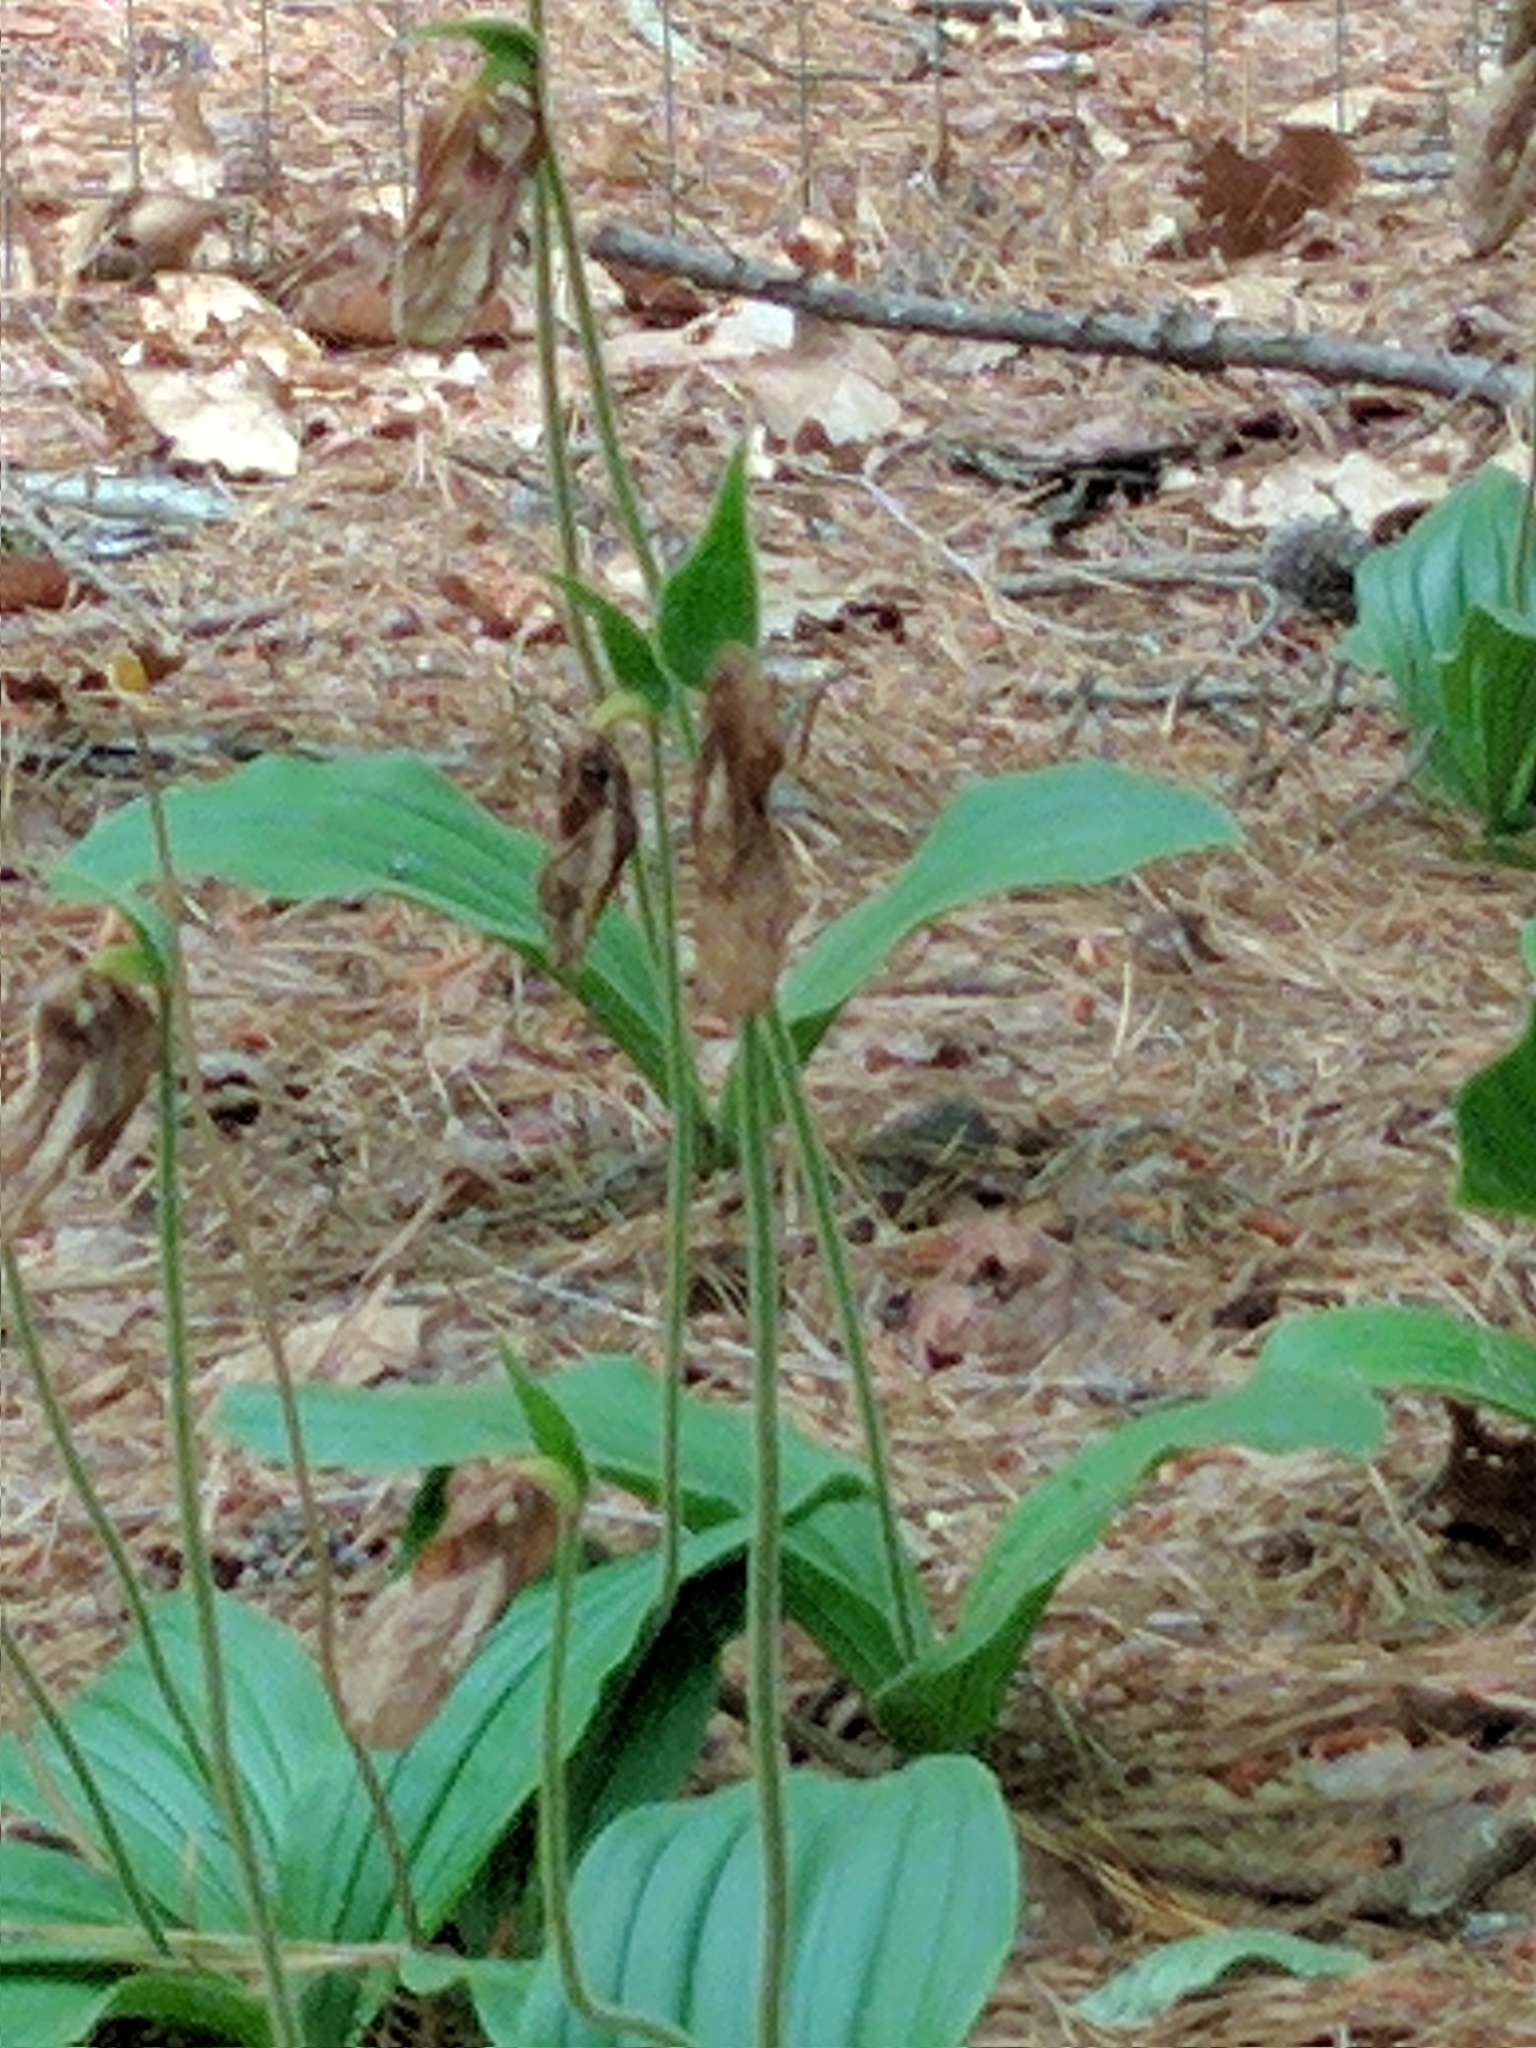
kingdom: Plantae
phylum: Tracheophyta
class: Liliopsida
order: Asparagales
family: Orchidaceae
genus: Cypripedium
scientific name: Cypripedium acaule
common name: Pink lady's-slipper
